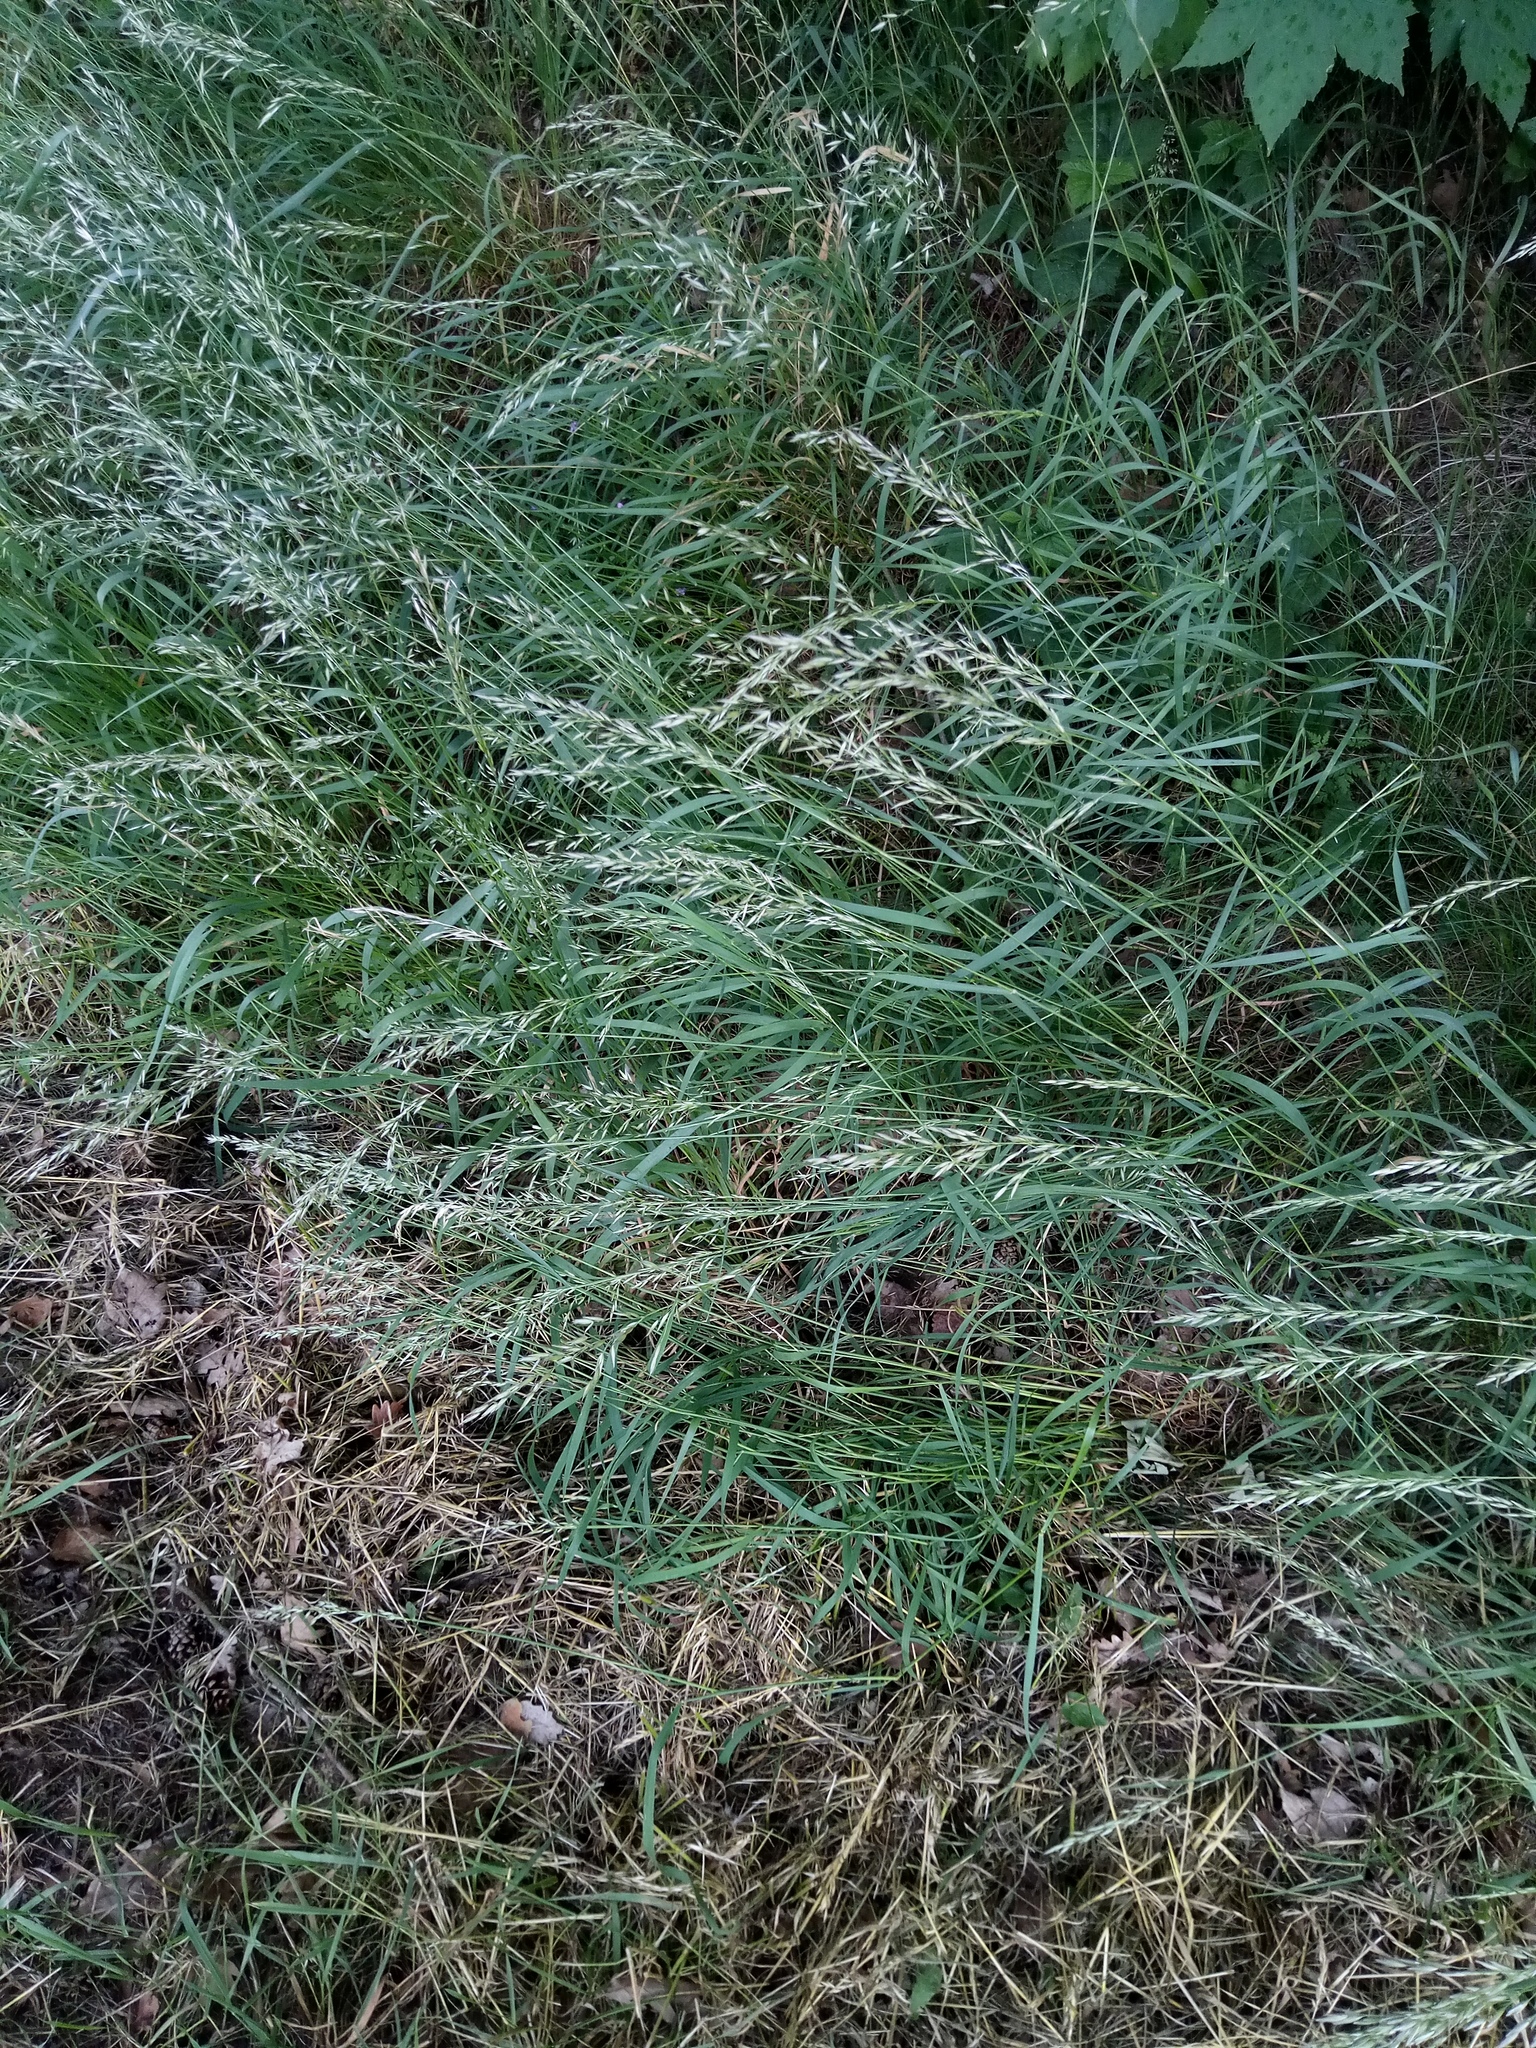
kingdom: Plantae
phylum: Tracheophyta
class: Liliopsida
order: Poales
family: Poaceae
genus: Arrhenatherum
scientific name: Arrhenatherum elatius
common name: Tall oatgrass
